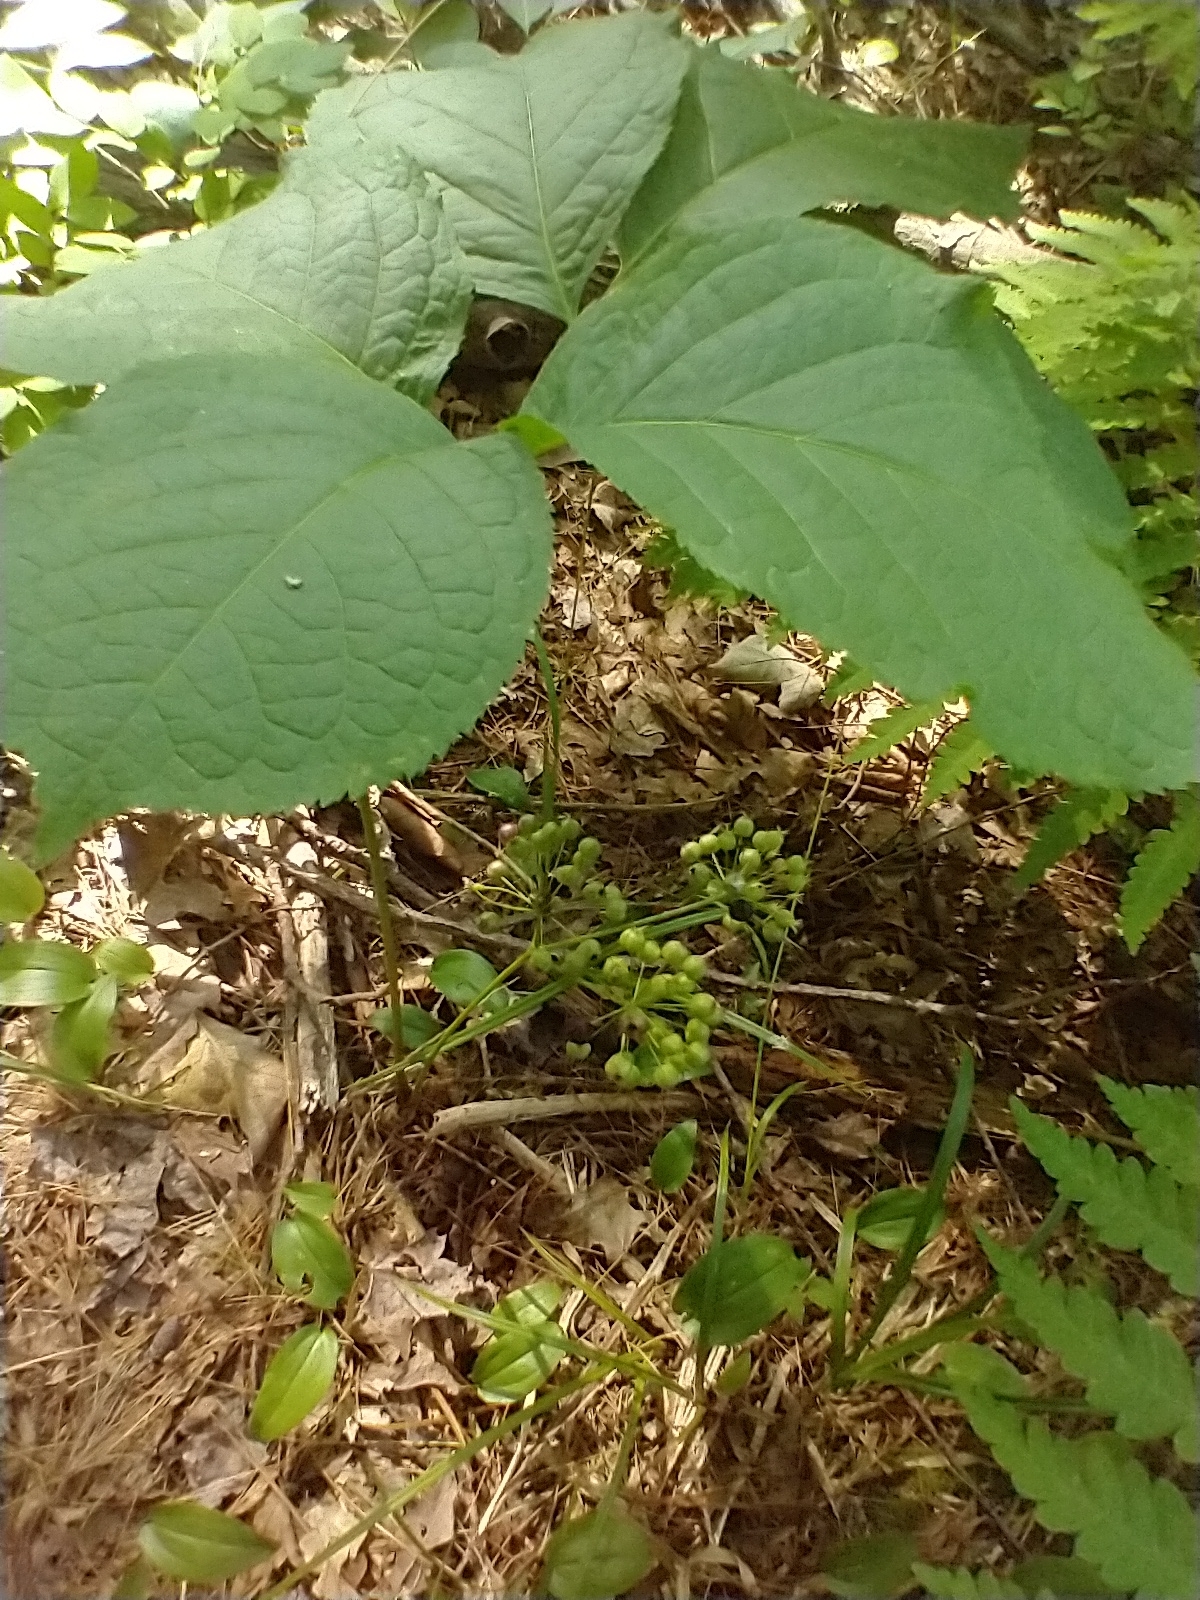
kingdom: Plantae
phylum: Tracheophyta
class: Magnoliopsida
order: Apiales
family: Araliaceae
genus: Aralia
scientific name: Aralia nudicaulis
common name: Wild sarsaparilla
